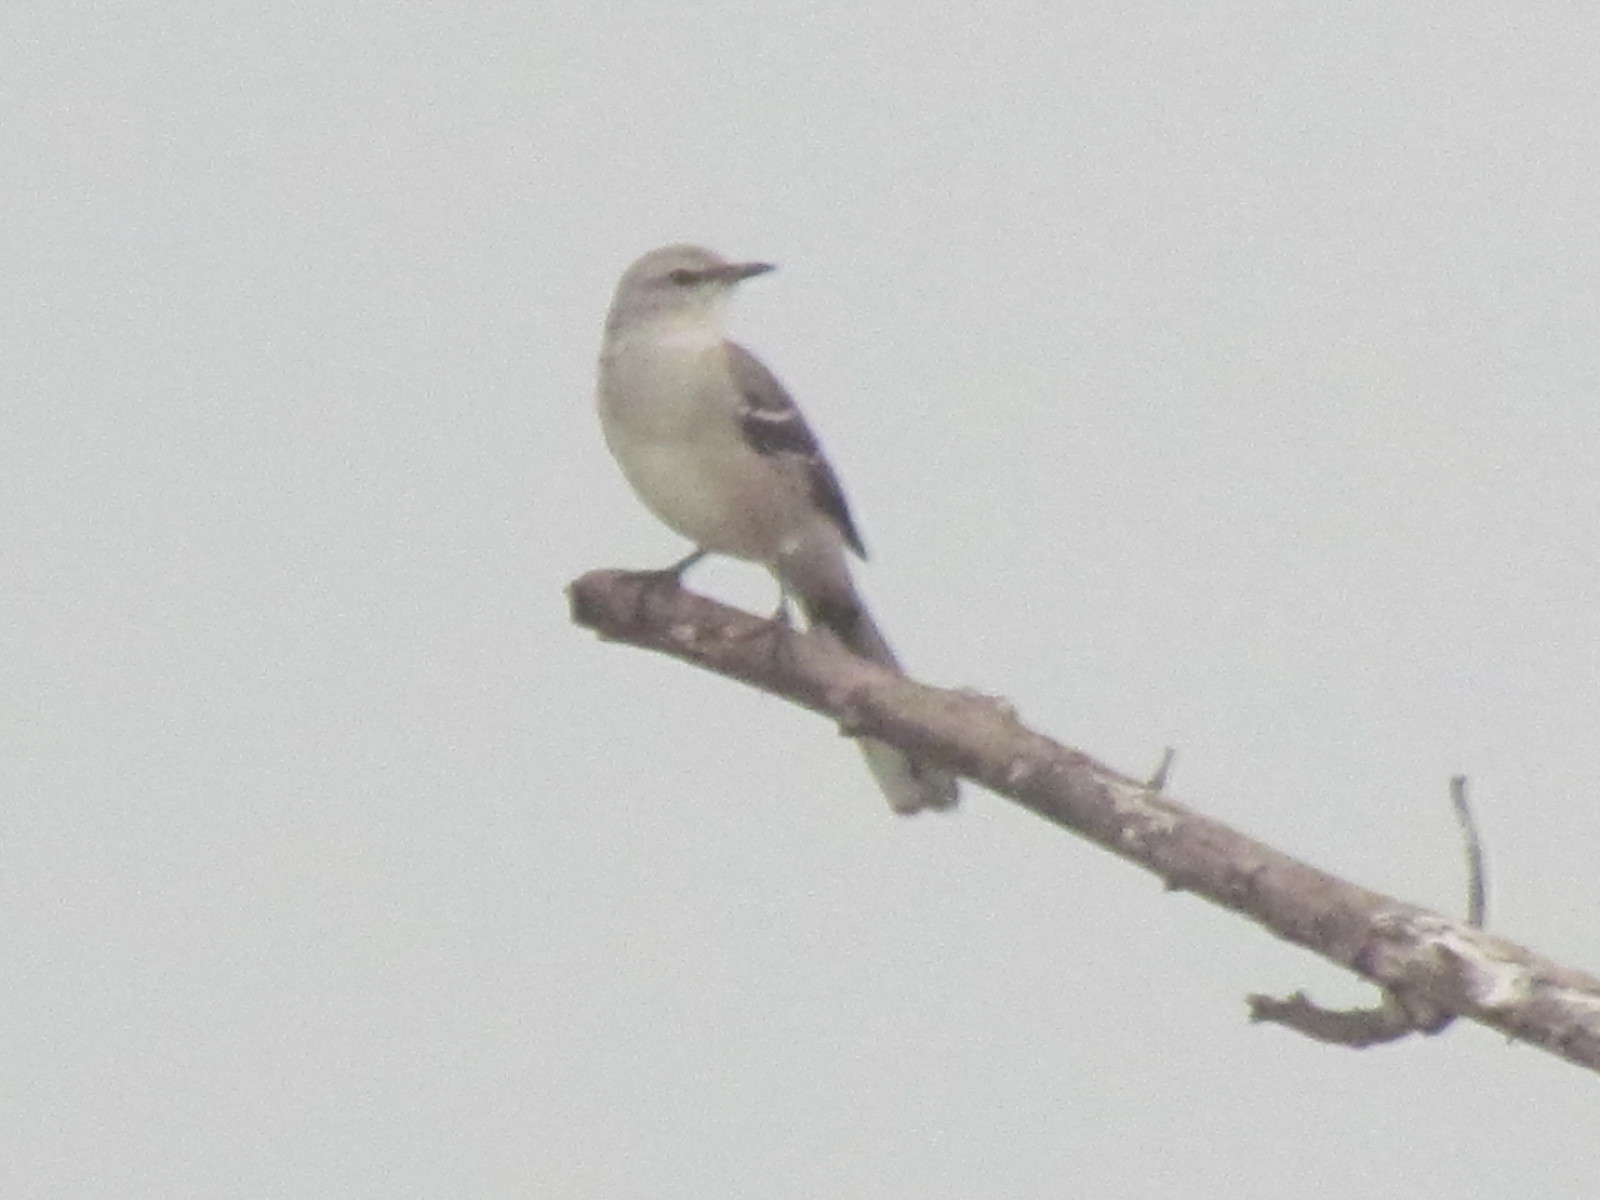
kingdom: Animalia
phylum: Chordata
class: Aves
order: Passeriformes
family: Mimidae
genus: Mimus
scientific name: Mimus gilvus
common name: Tropical mockingbird
